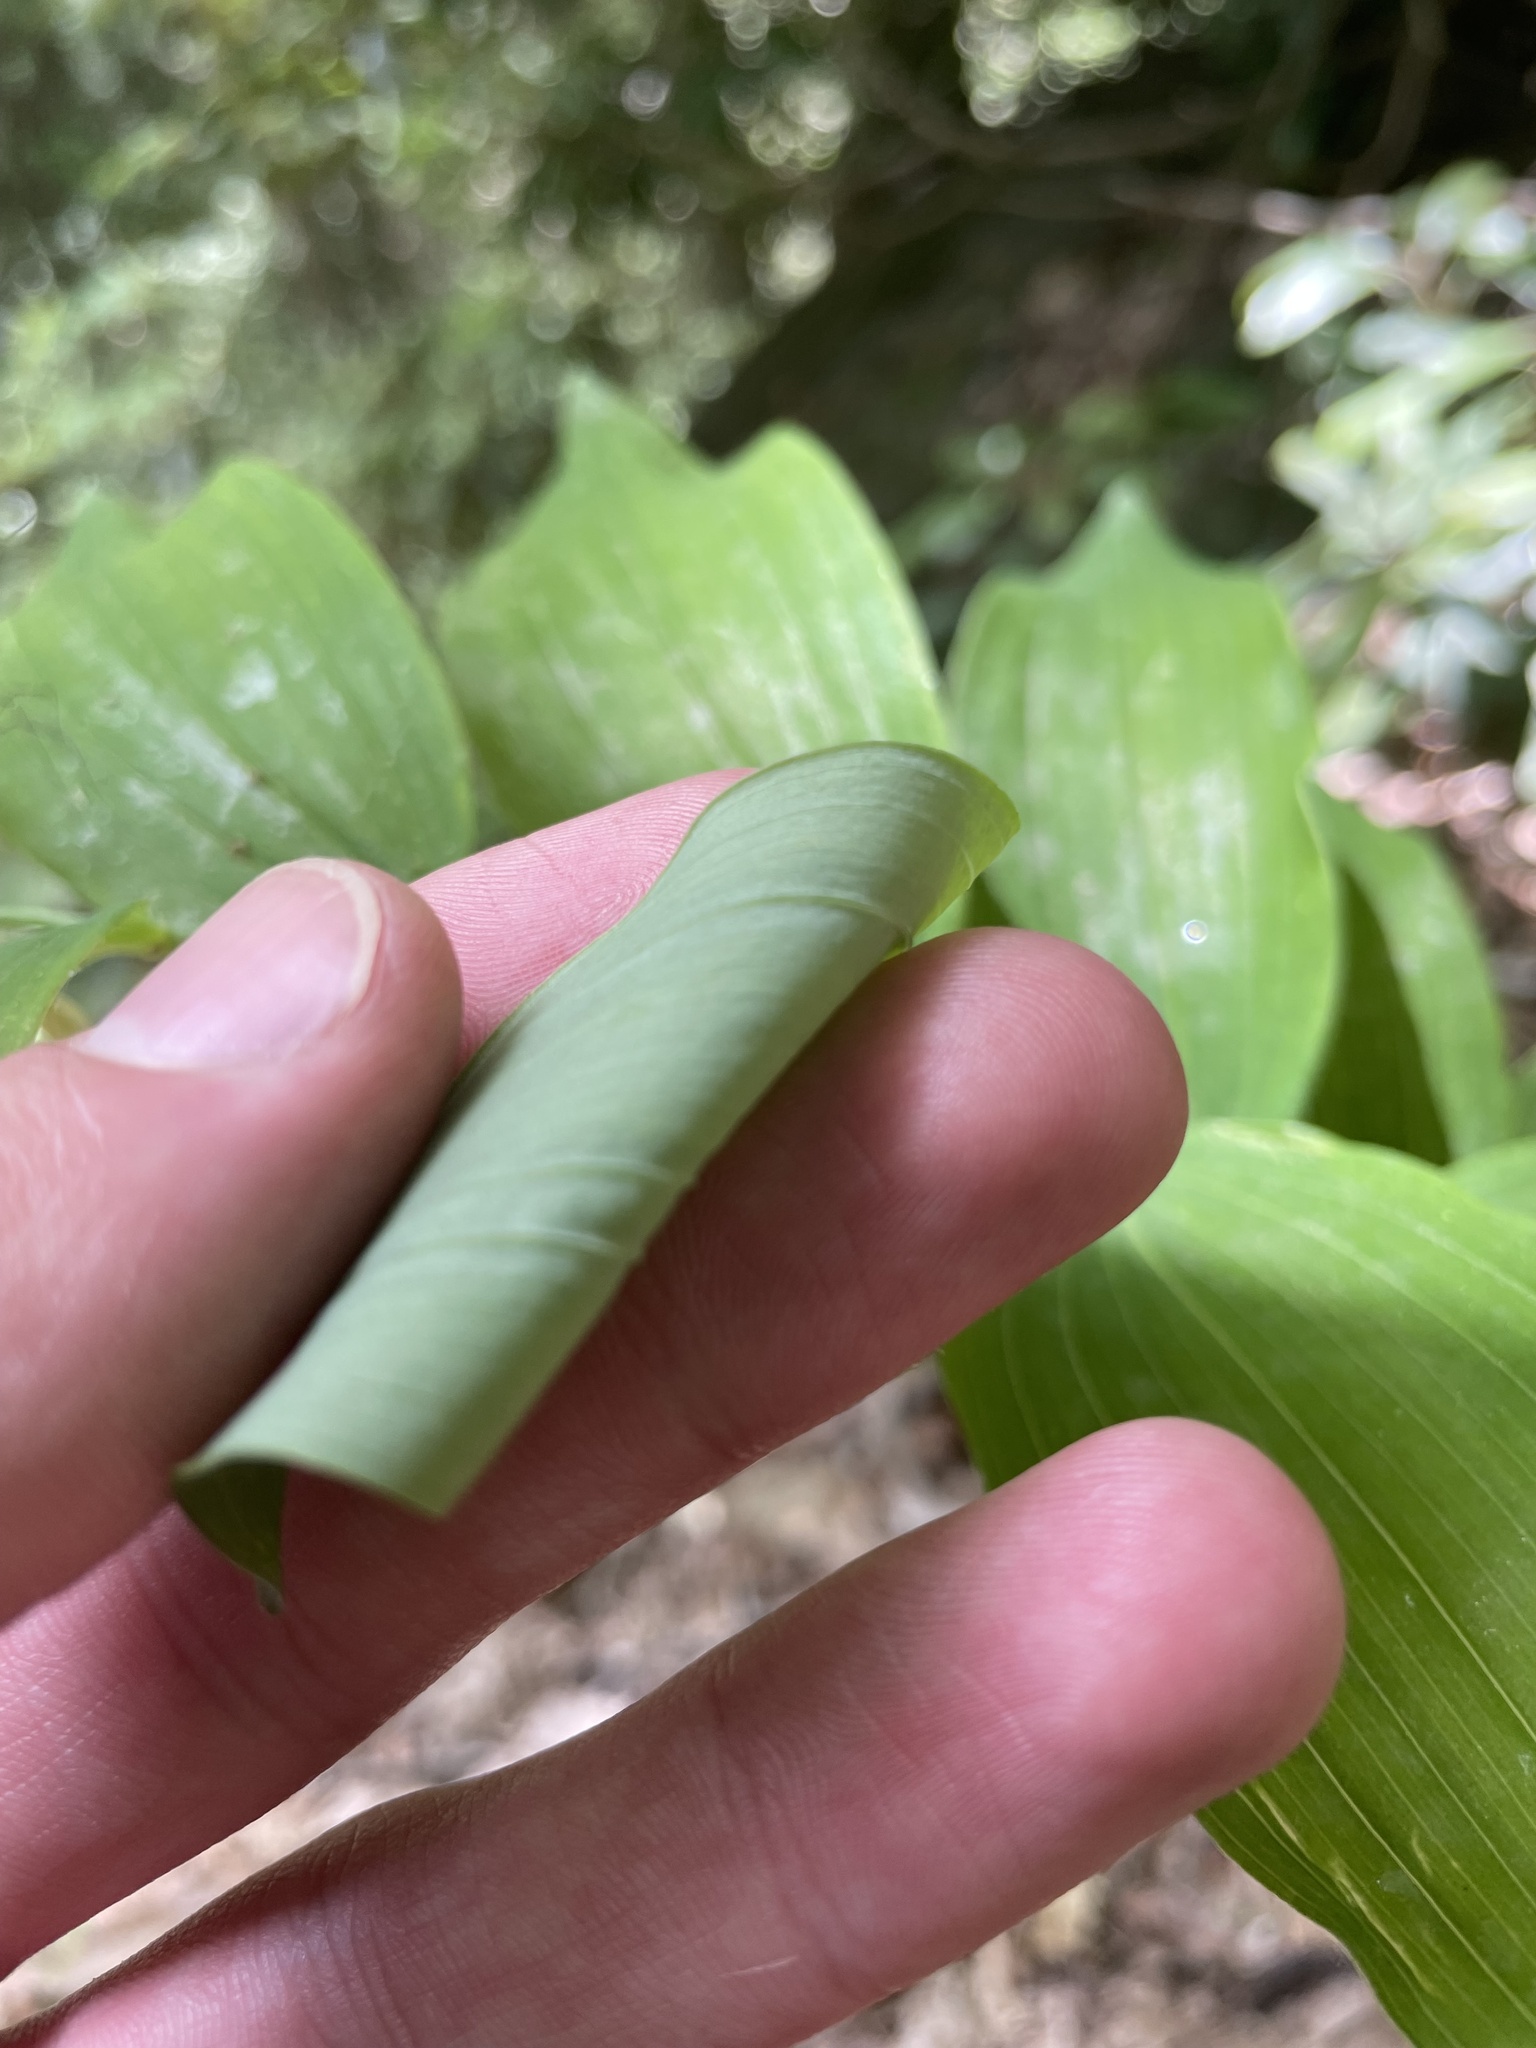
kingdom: Plantae
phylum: Tracheophyta
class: Liliopsida
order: Asparagales
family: Asparagaceae
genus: Polygonatum
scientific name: Polygonatum biflorum
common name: American solomon's-seal
